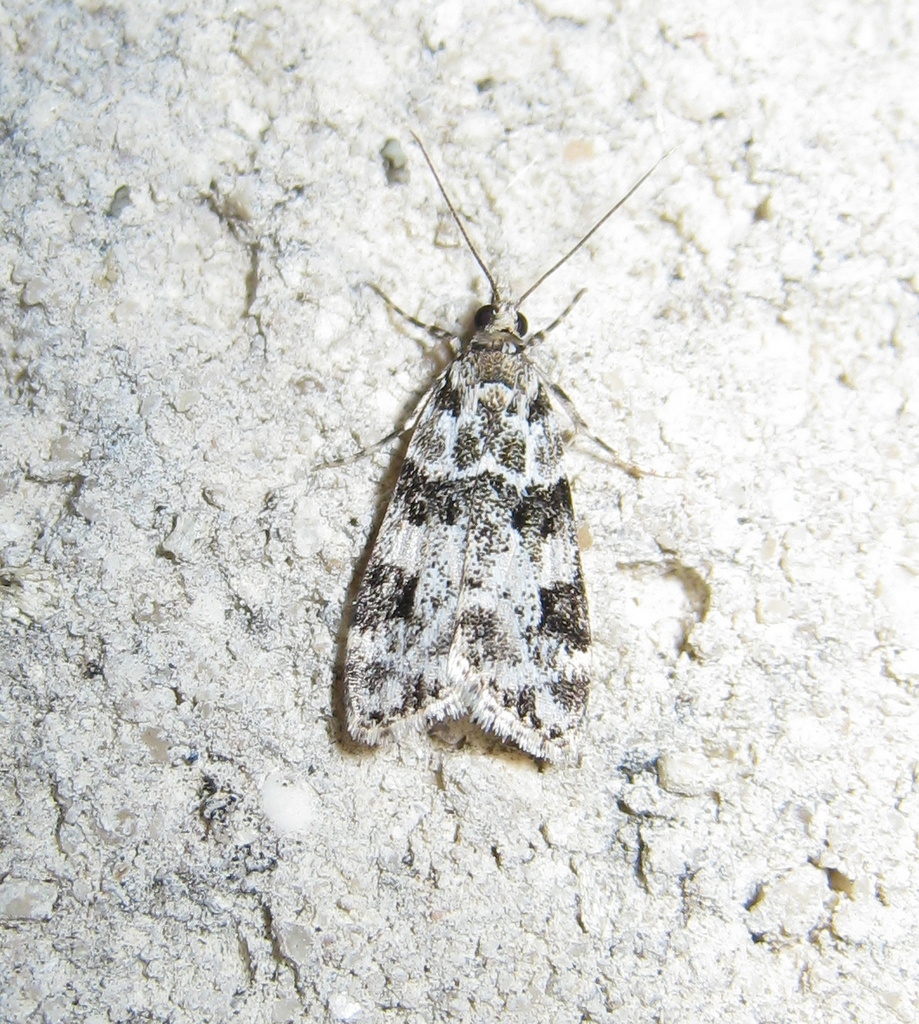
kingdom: Animalia
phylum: Arthropoda
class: Insecta
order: Lepidoptera
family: Crambidae
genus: Eudonia
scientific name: Eudonia delunella
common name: Pied grey
